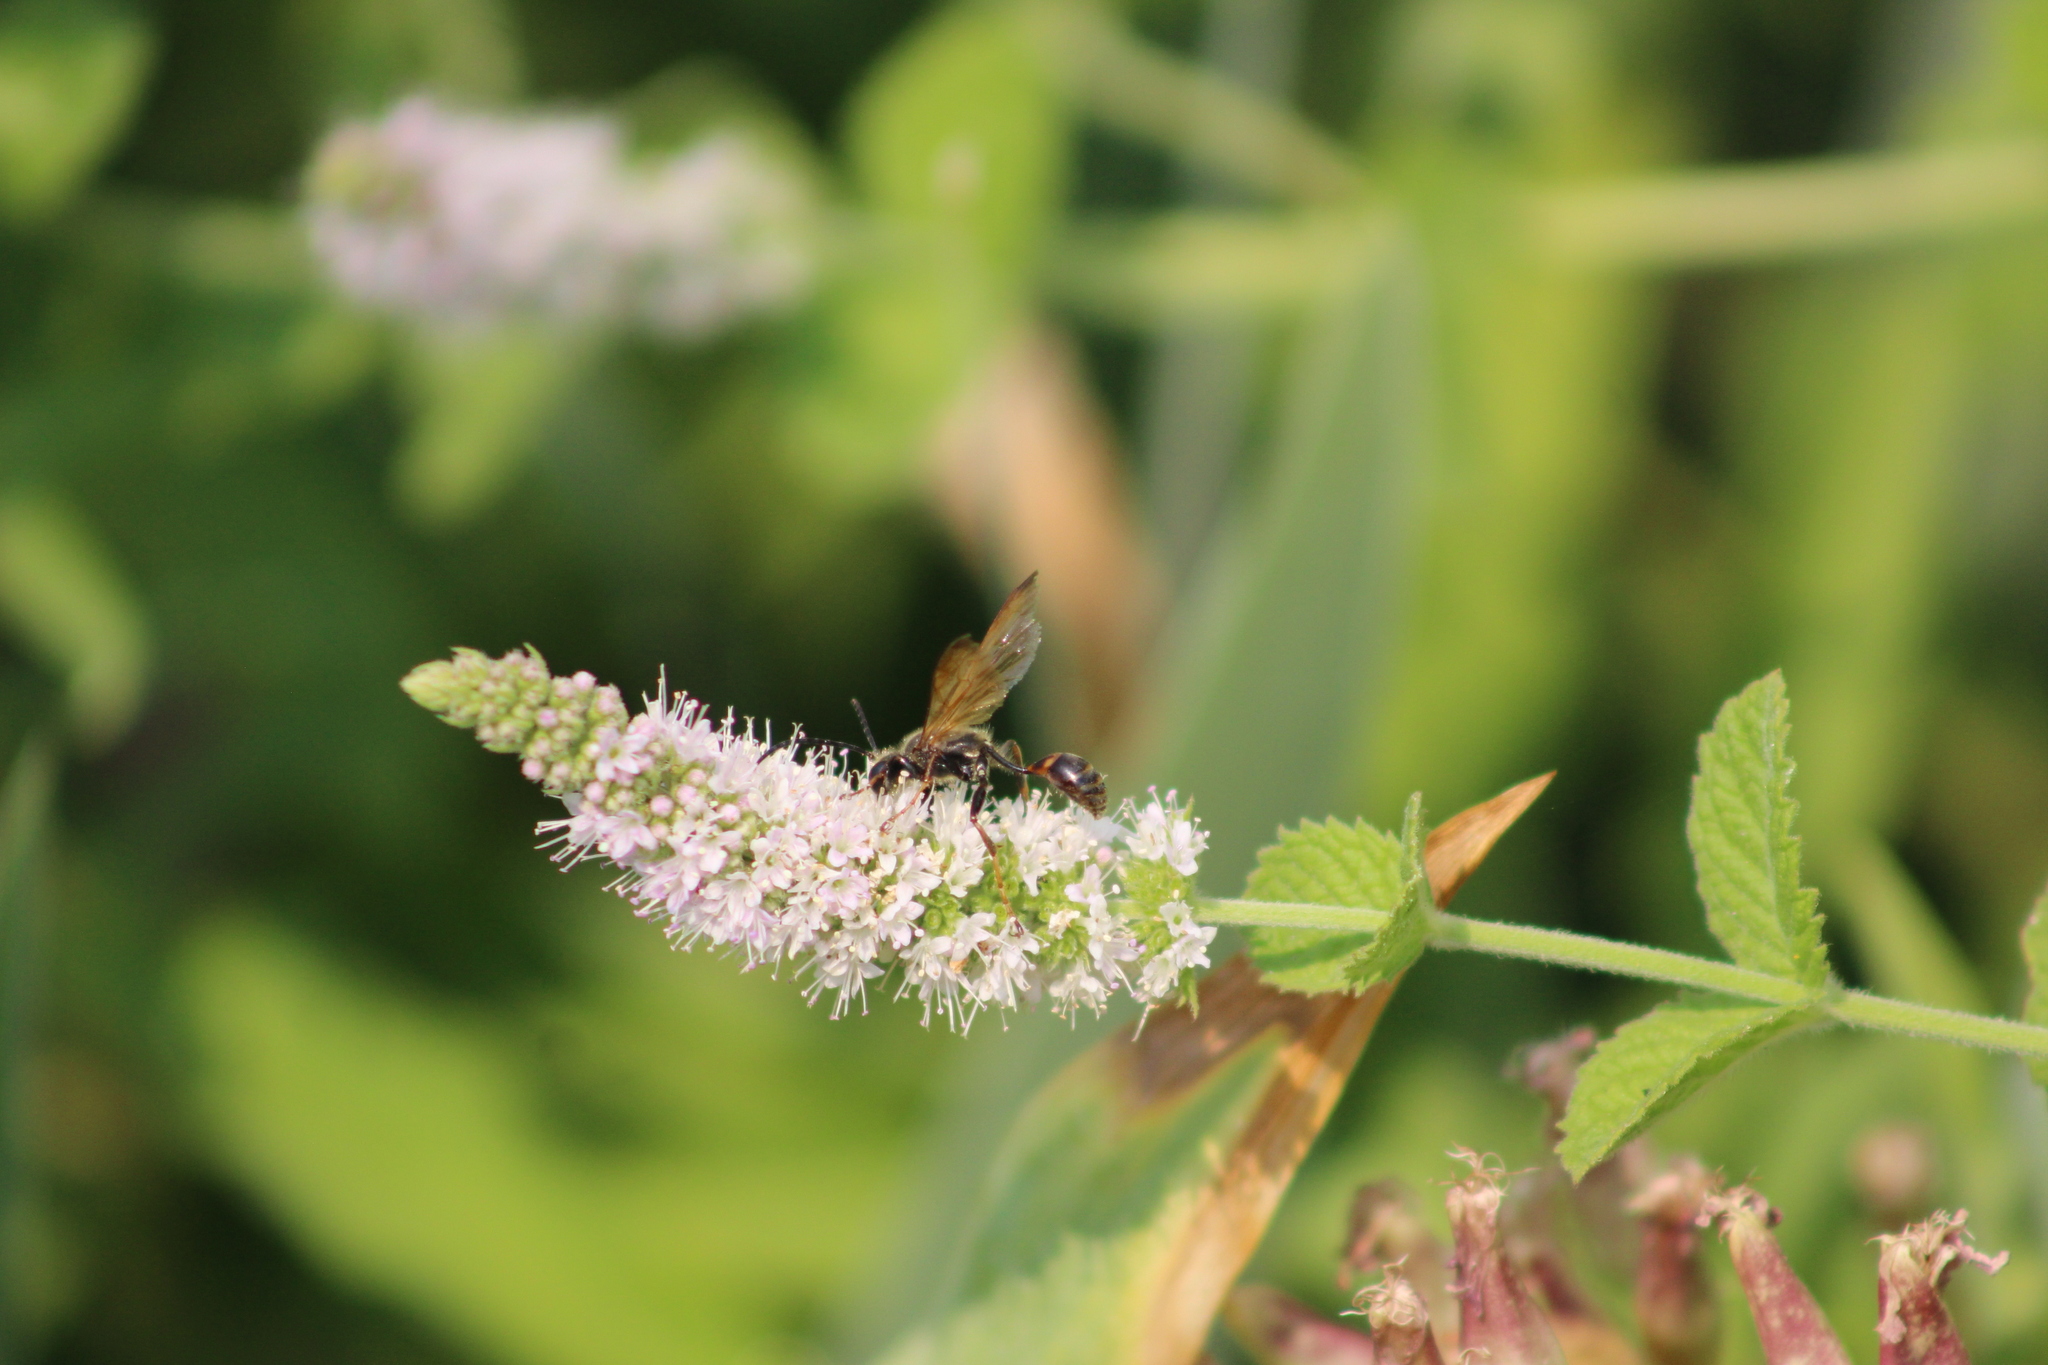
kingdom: Animalia
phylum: Arthropoda
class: Insecta
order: Hymenoptera
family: Sphecidae
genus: Isodontia
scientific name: Isodontia elegans
